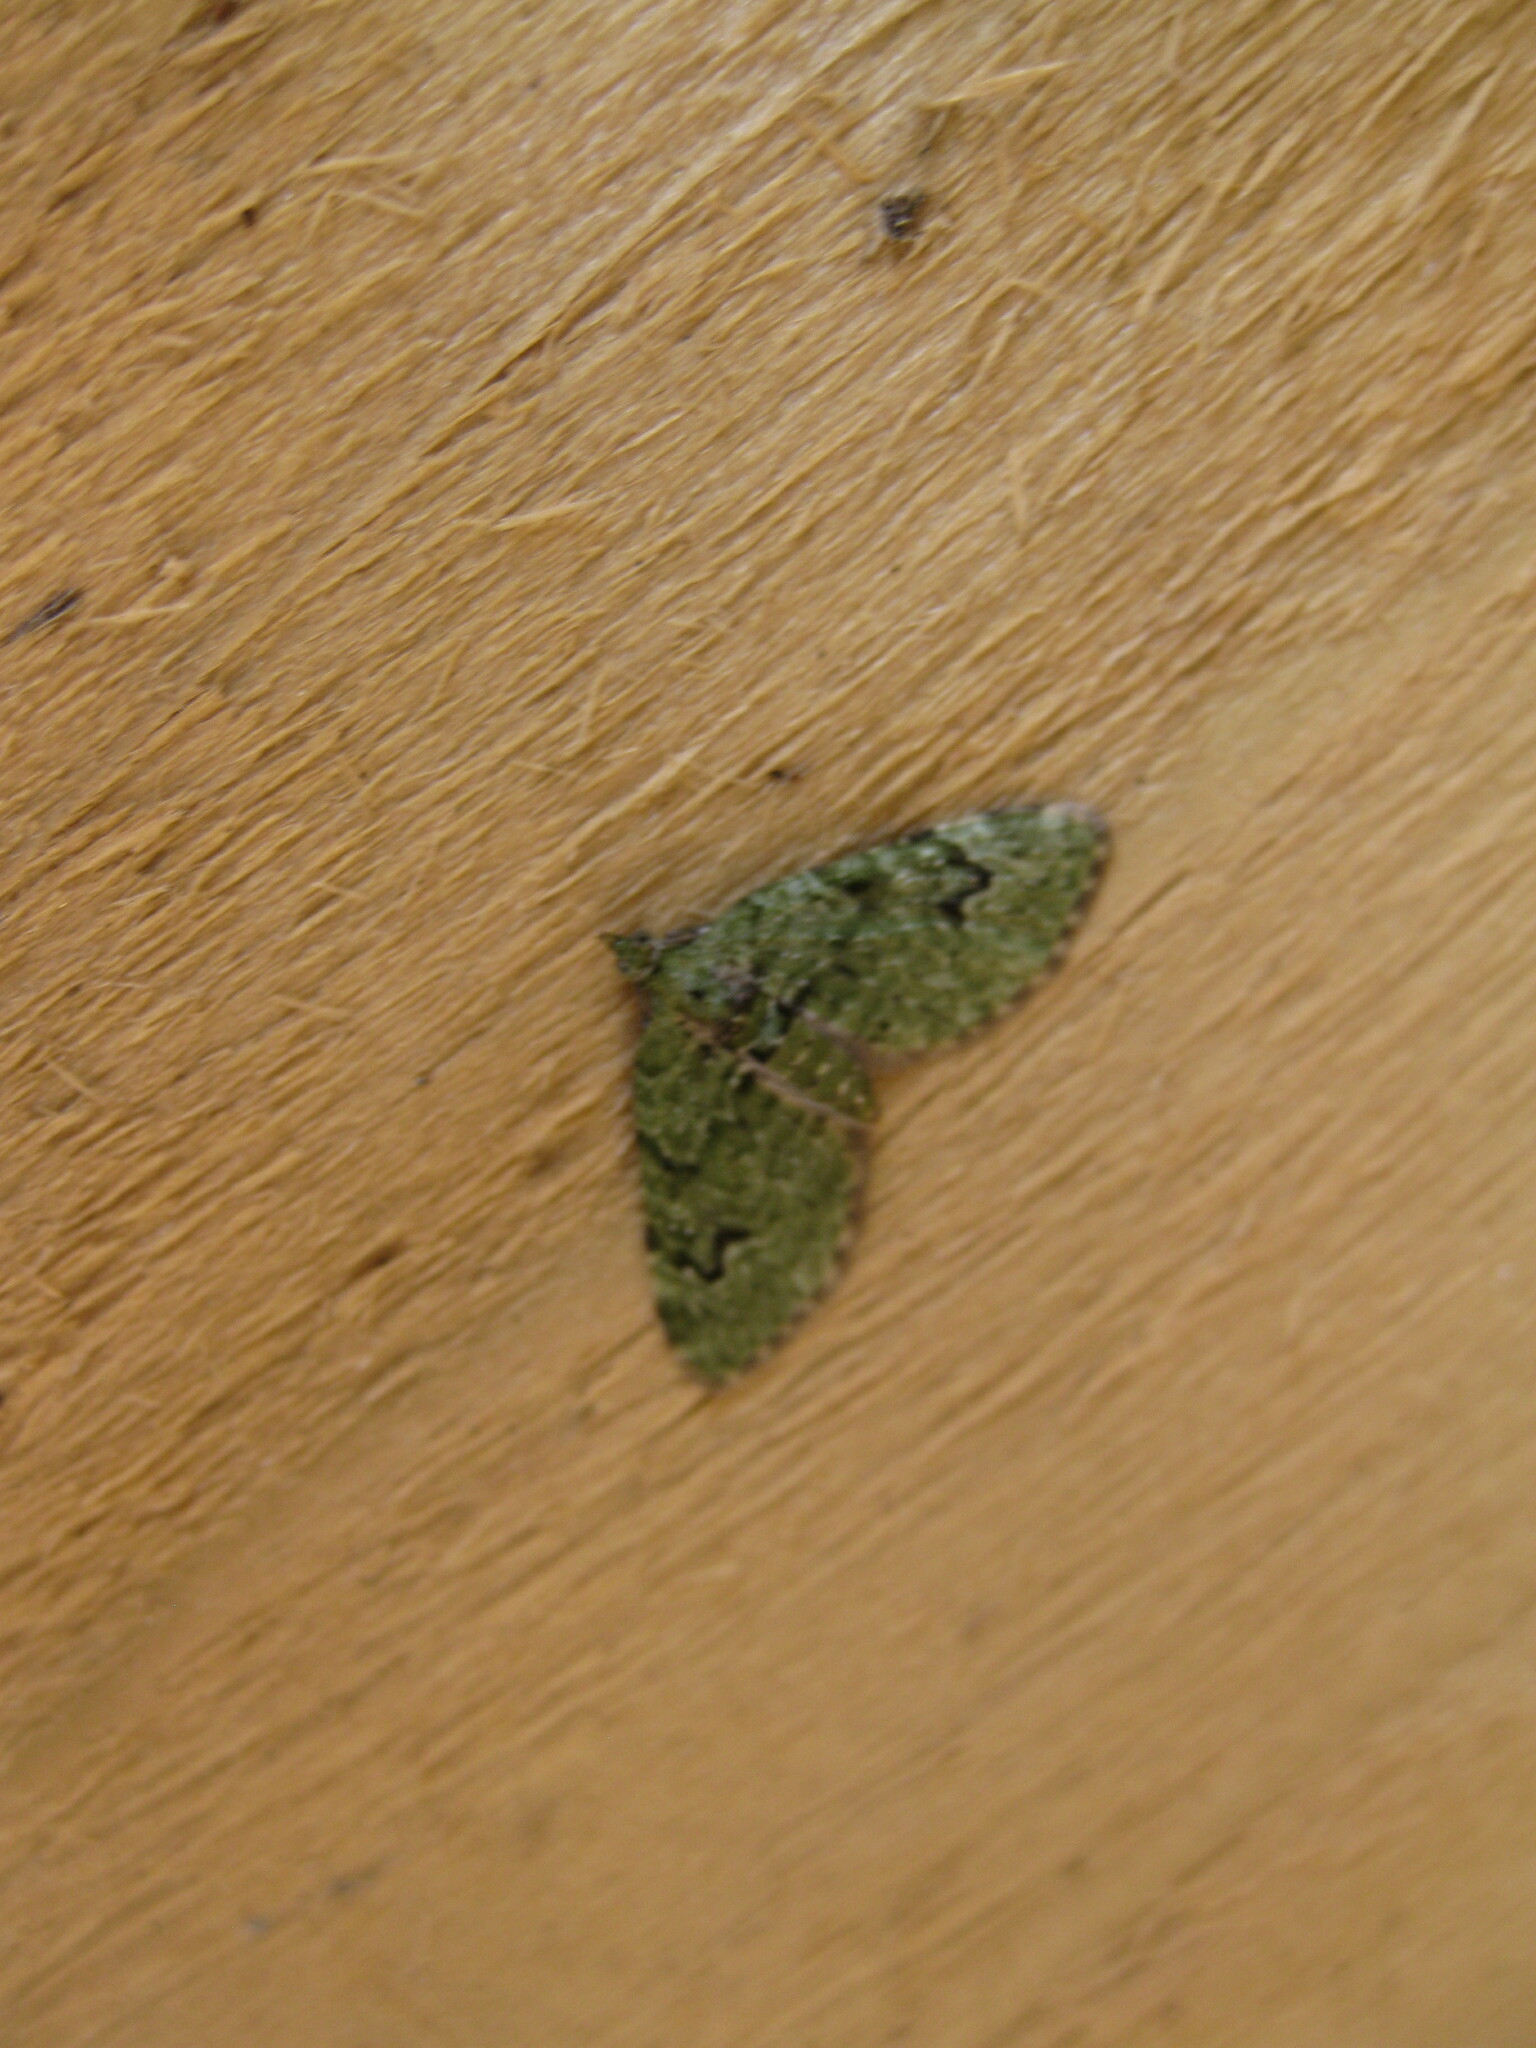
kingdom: Animalia
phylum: Arthropoda
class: Insecta
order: Lepidoptera
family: Geometridae
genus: Chloroclystis
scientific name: Chloroclystis v-ata
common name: V-pug
